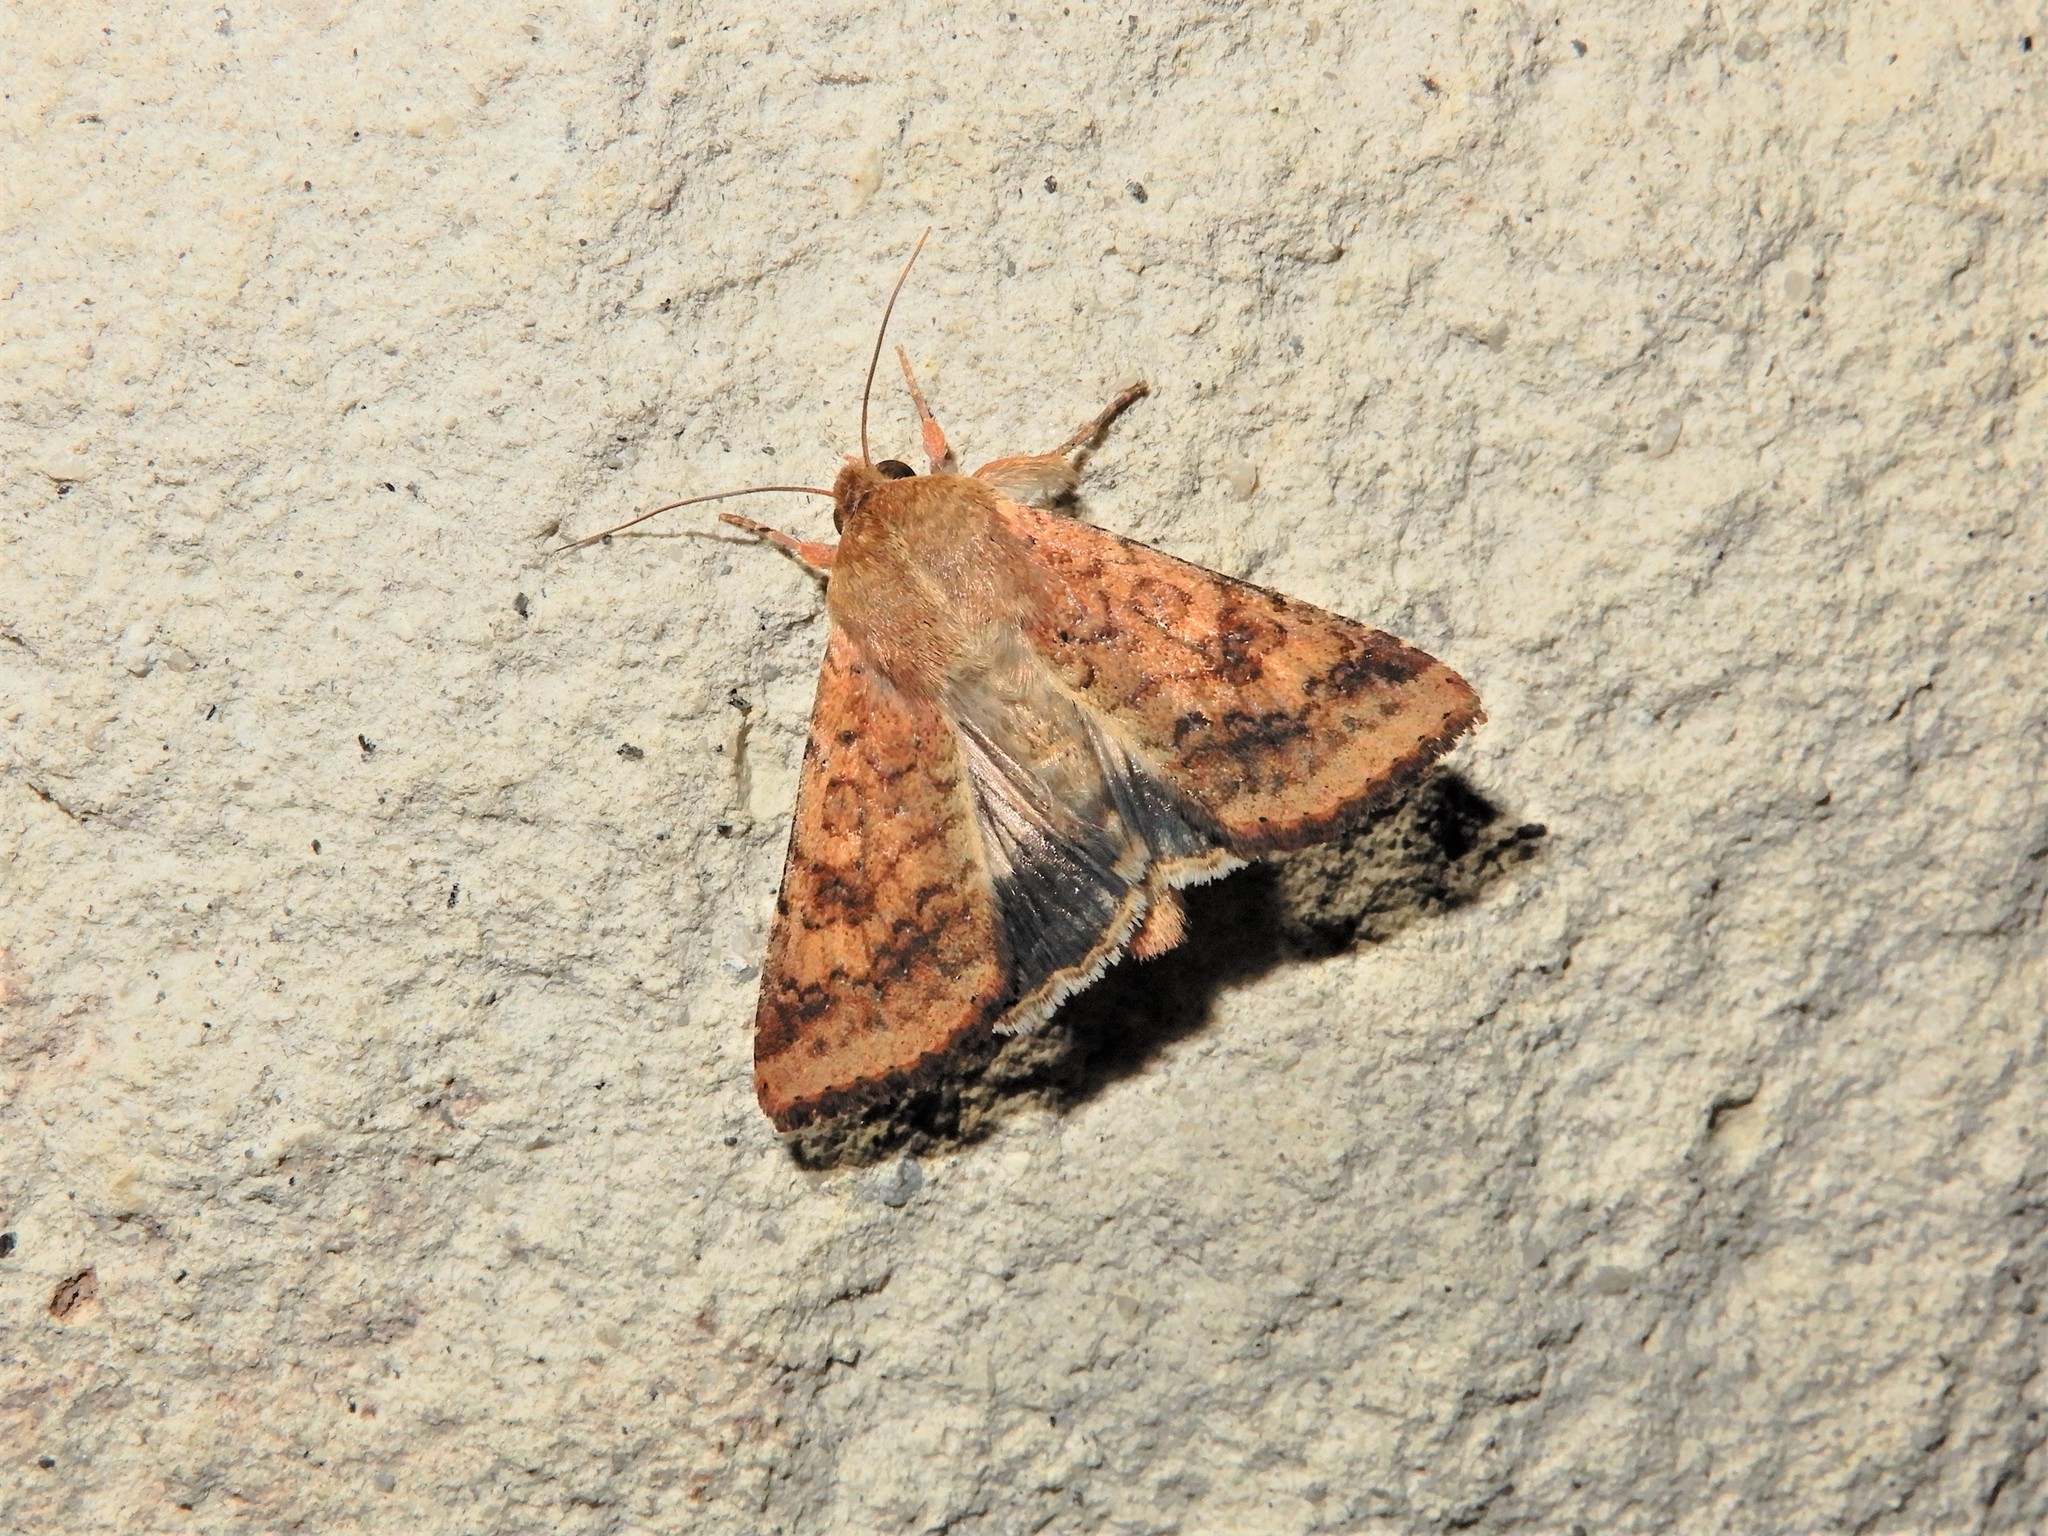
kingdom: Animalia
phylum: Arthropoda
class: Insecta
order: Lepidoptera
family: Noctuidae
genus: Helicoverpa
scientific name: Helicoverpa armigera
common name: Cotton bollworm
